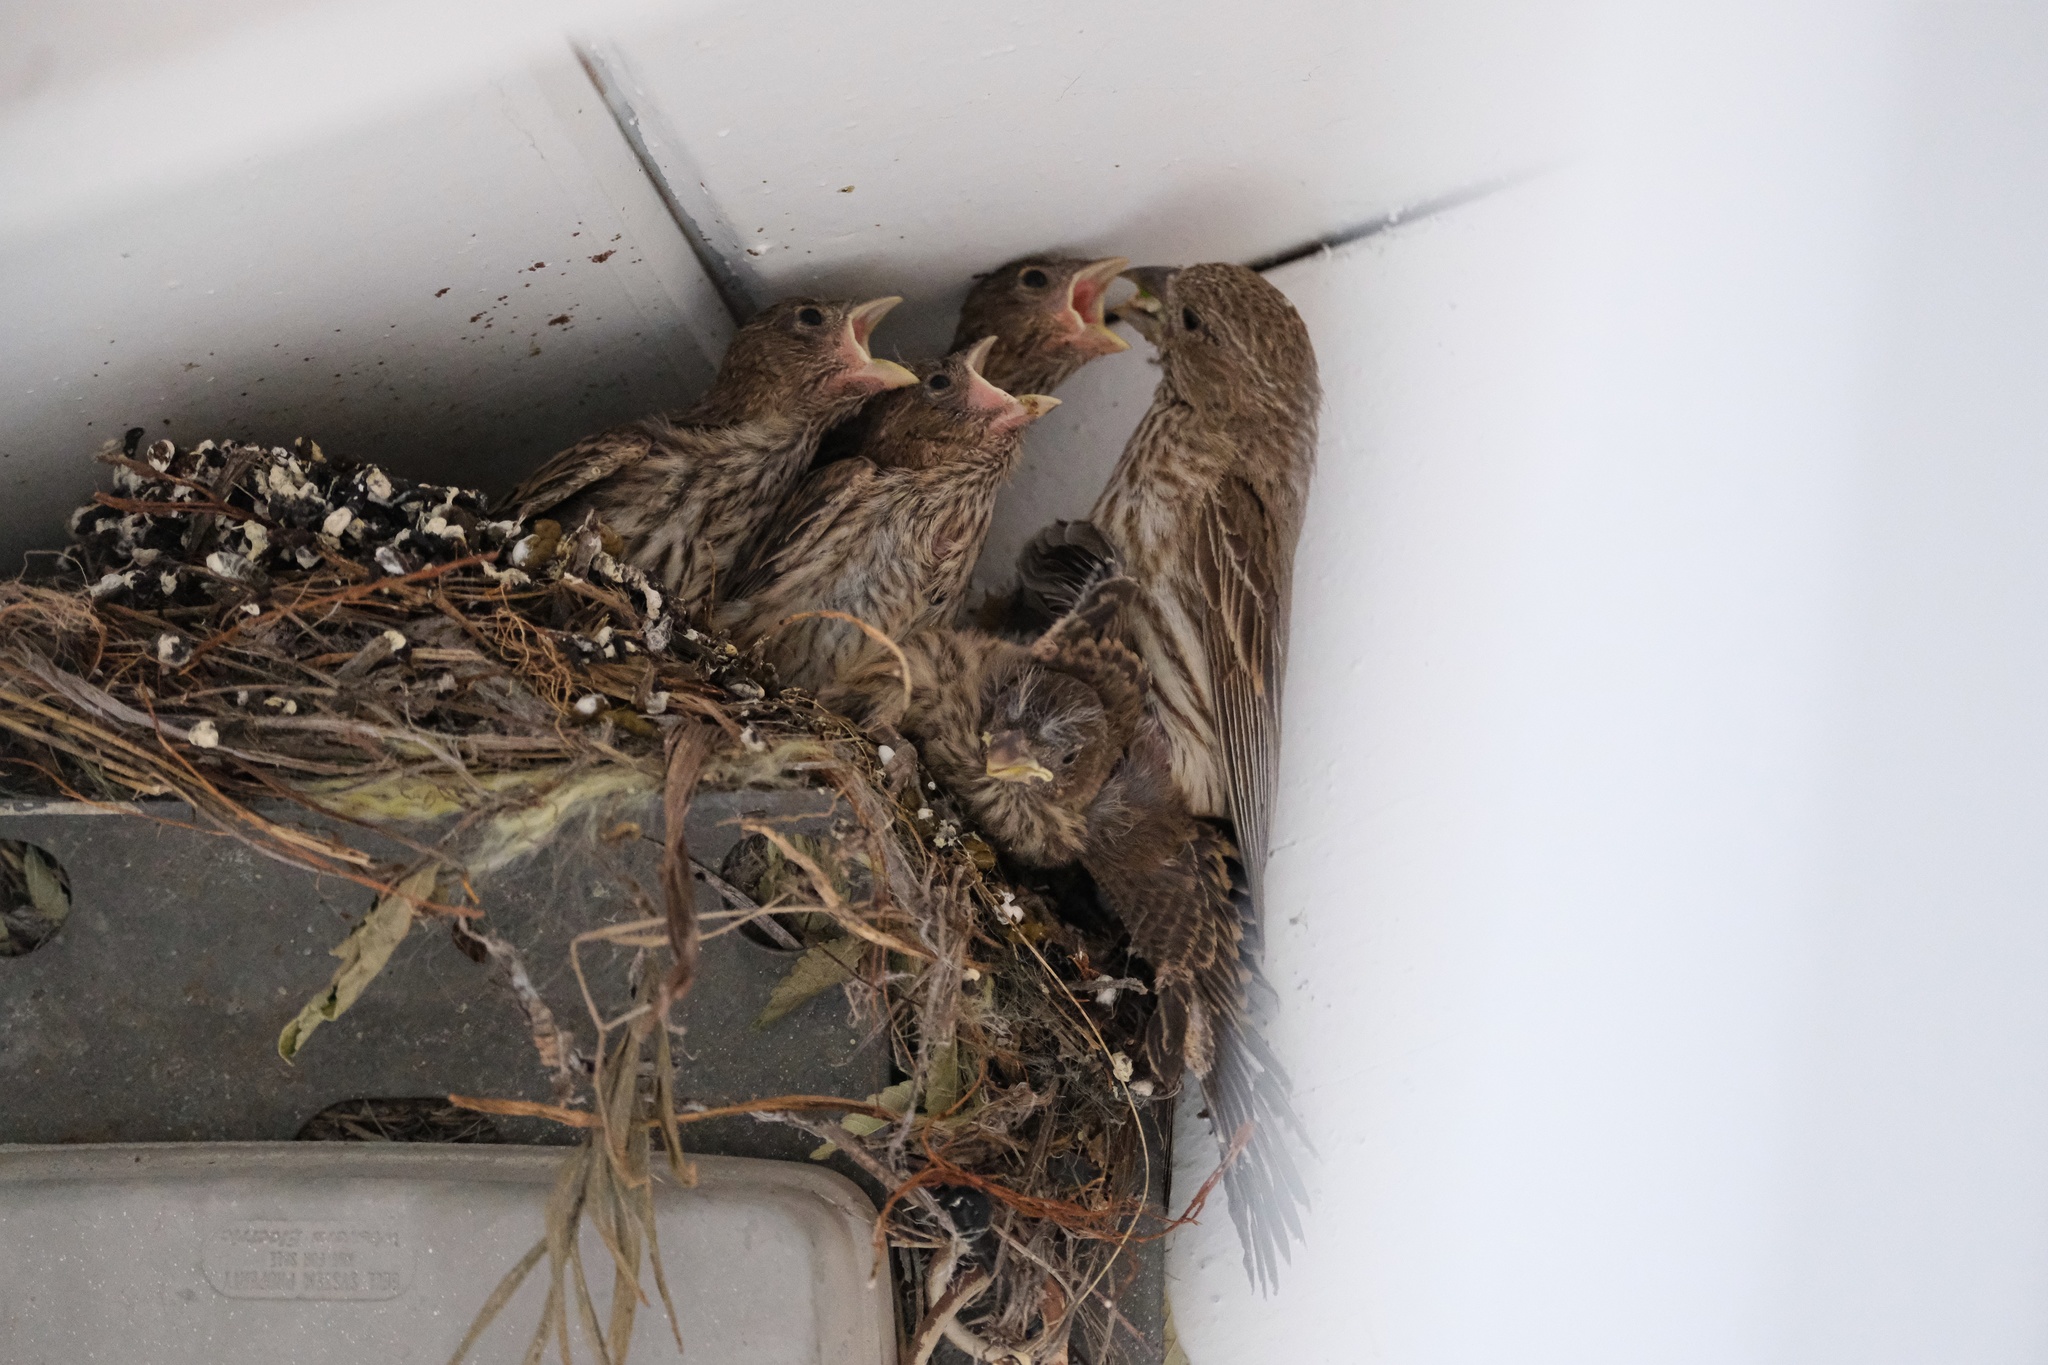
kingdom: Animalia
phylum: Chordata
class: Aves
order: Passeriformes
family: Fringillidae
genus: Haemorhous
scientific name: Haemorhous mexicanus
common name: House finch
